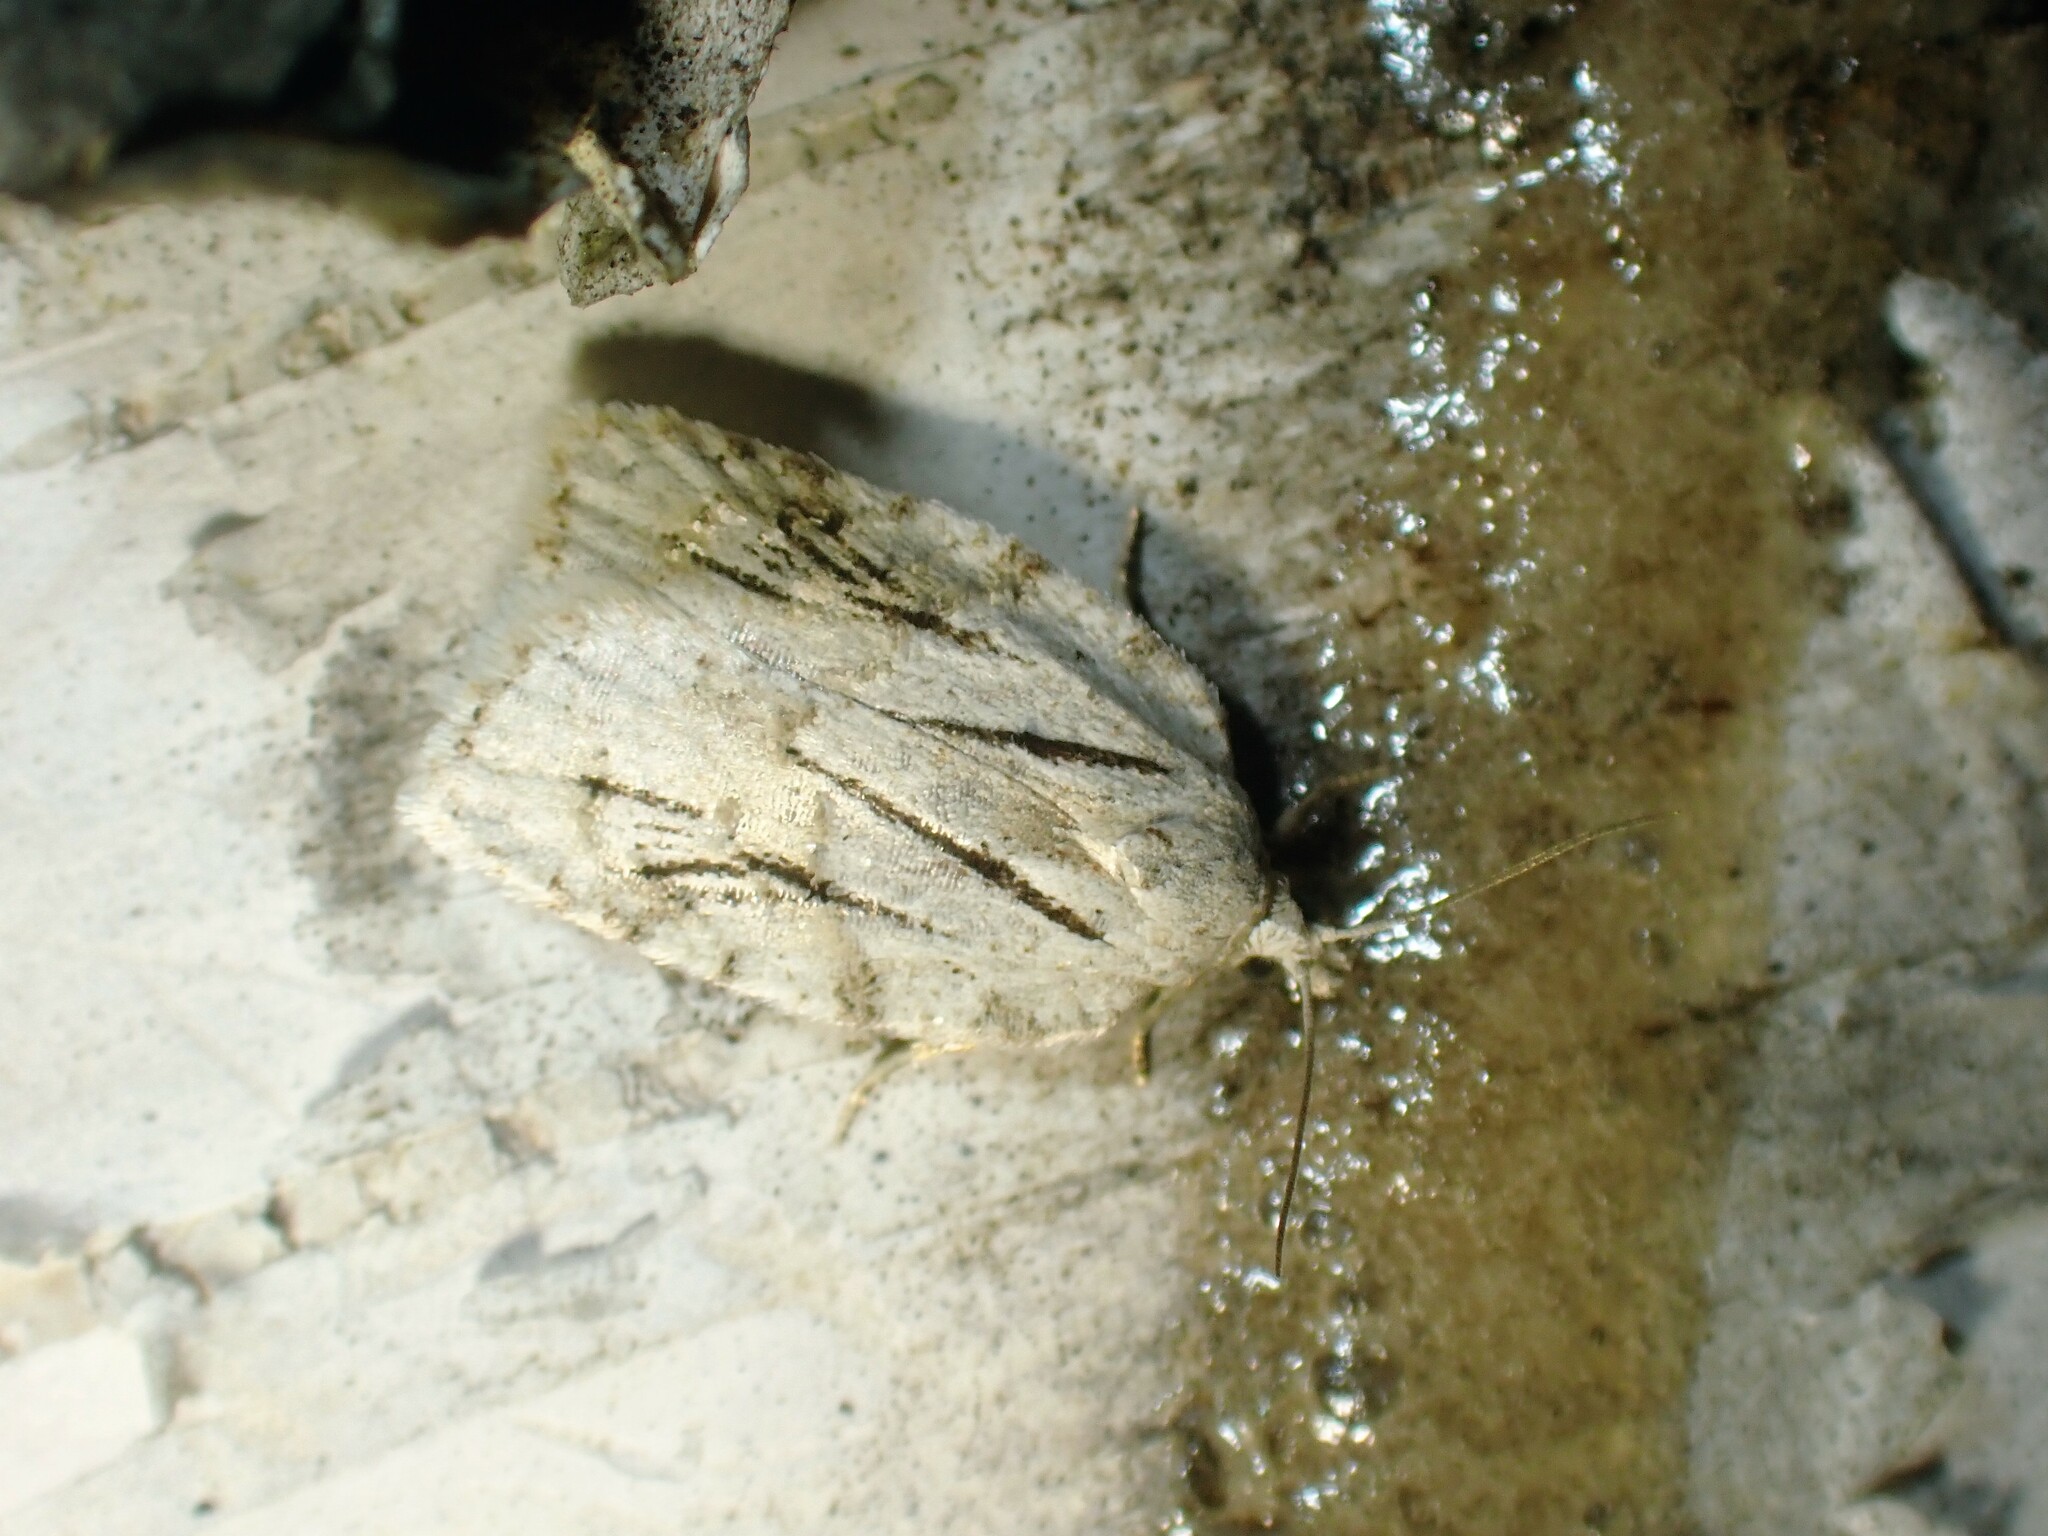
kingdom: Animalia
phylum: Arthropoda
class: Insecta
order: Lepidoptera
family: Tortricidae
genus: Acleris
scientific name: Acleris placidana
